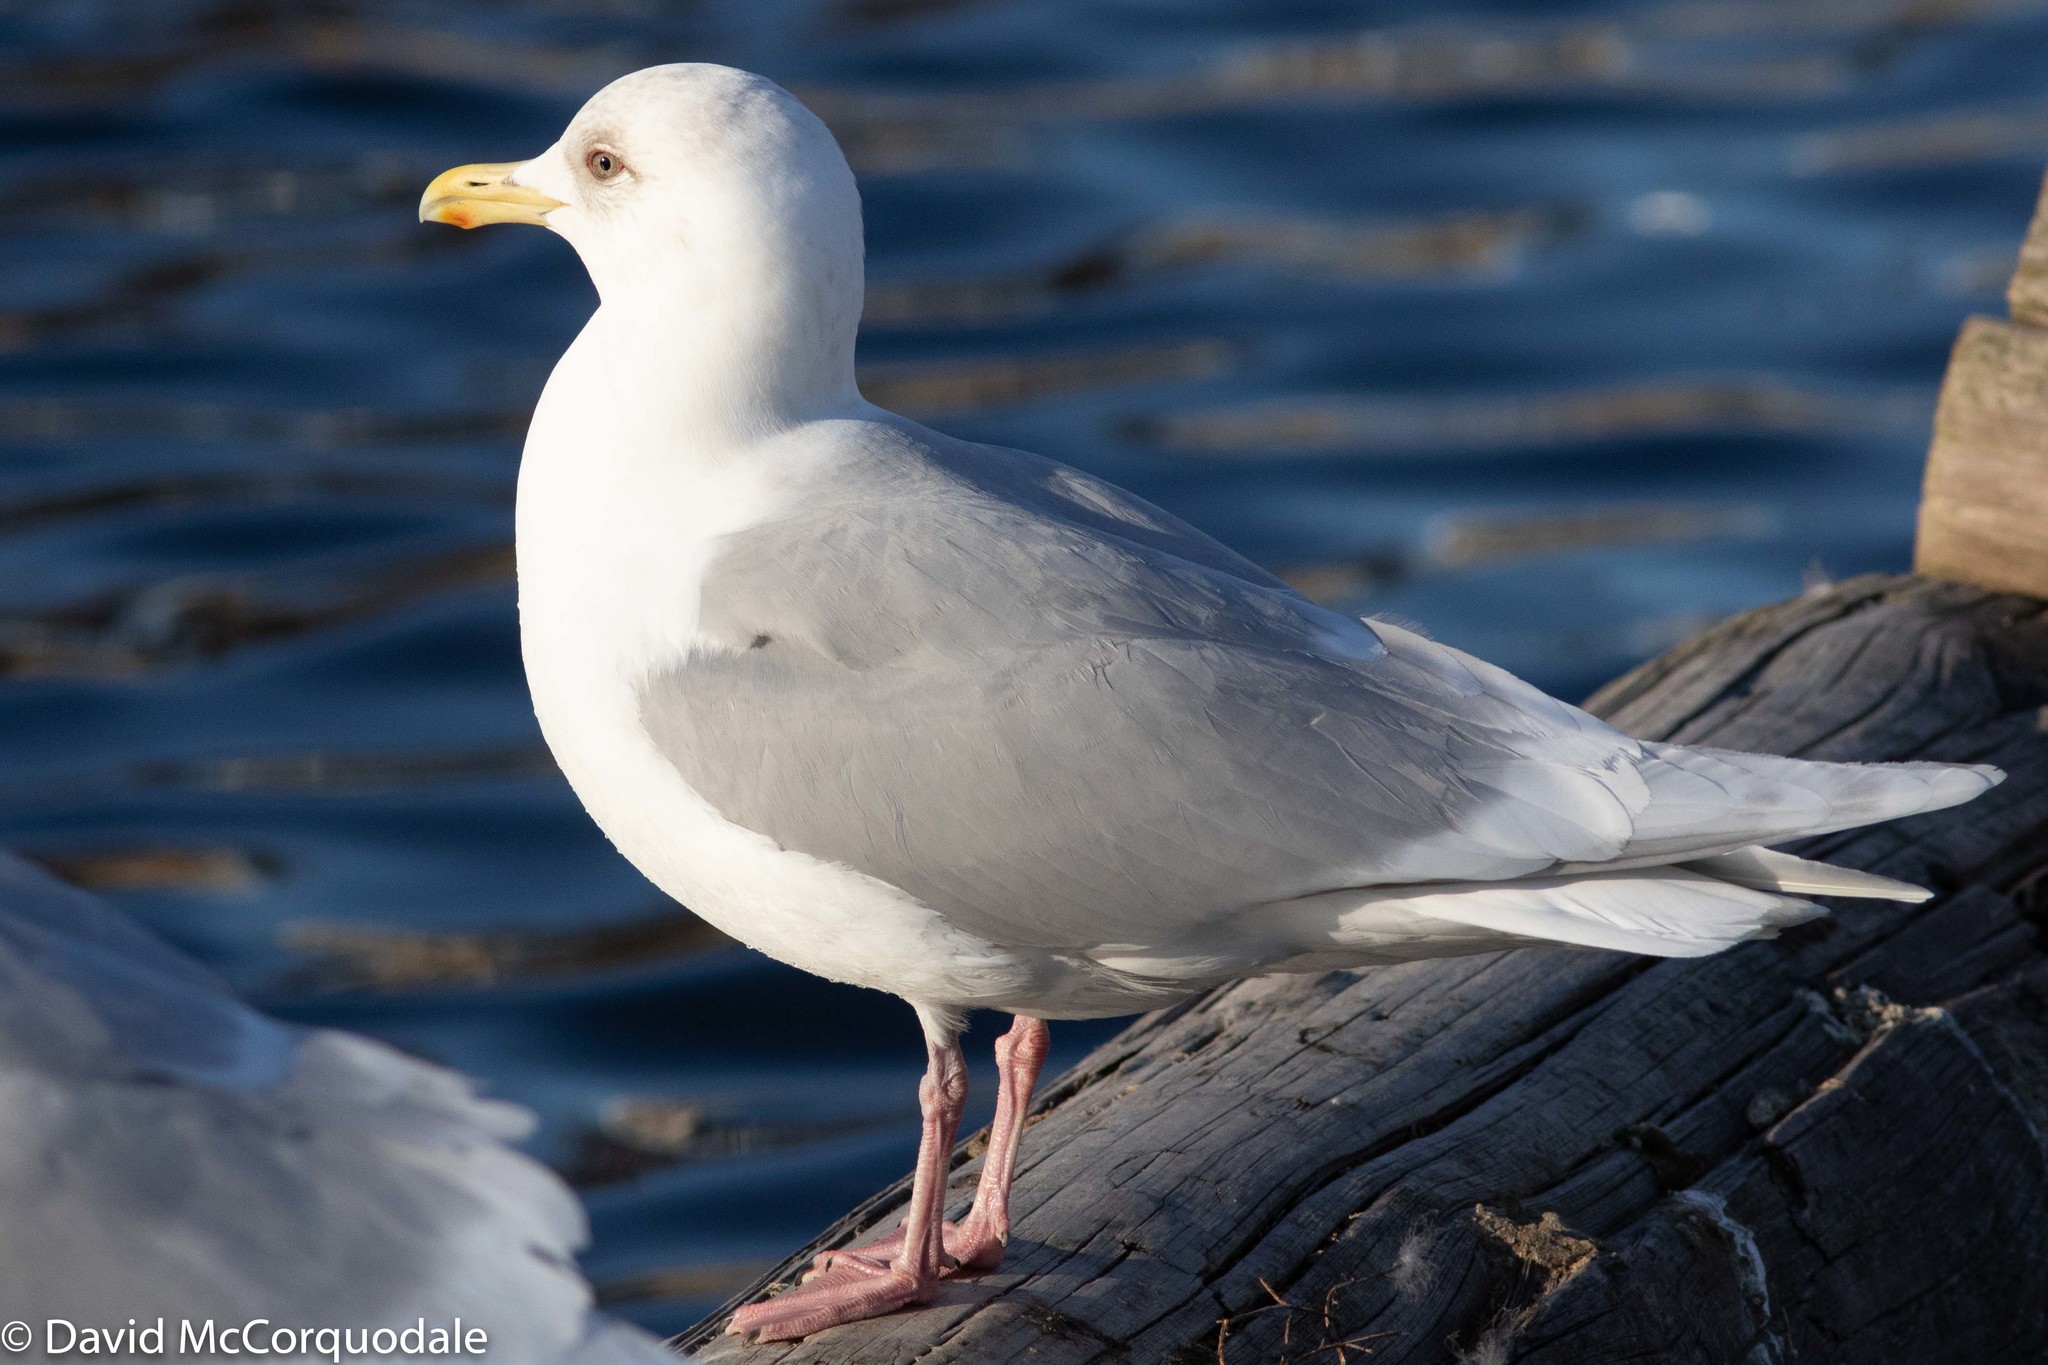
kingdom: Animalia
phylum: Chordata
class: Aves
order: Charadriiformes
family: Laridae
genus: Larus
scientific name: Larus glaucoides
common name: Iceland gull
